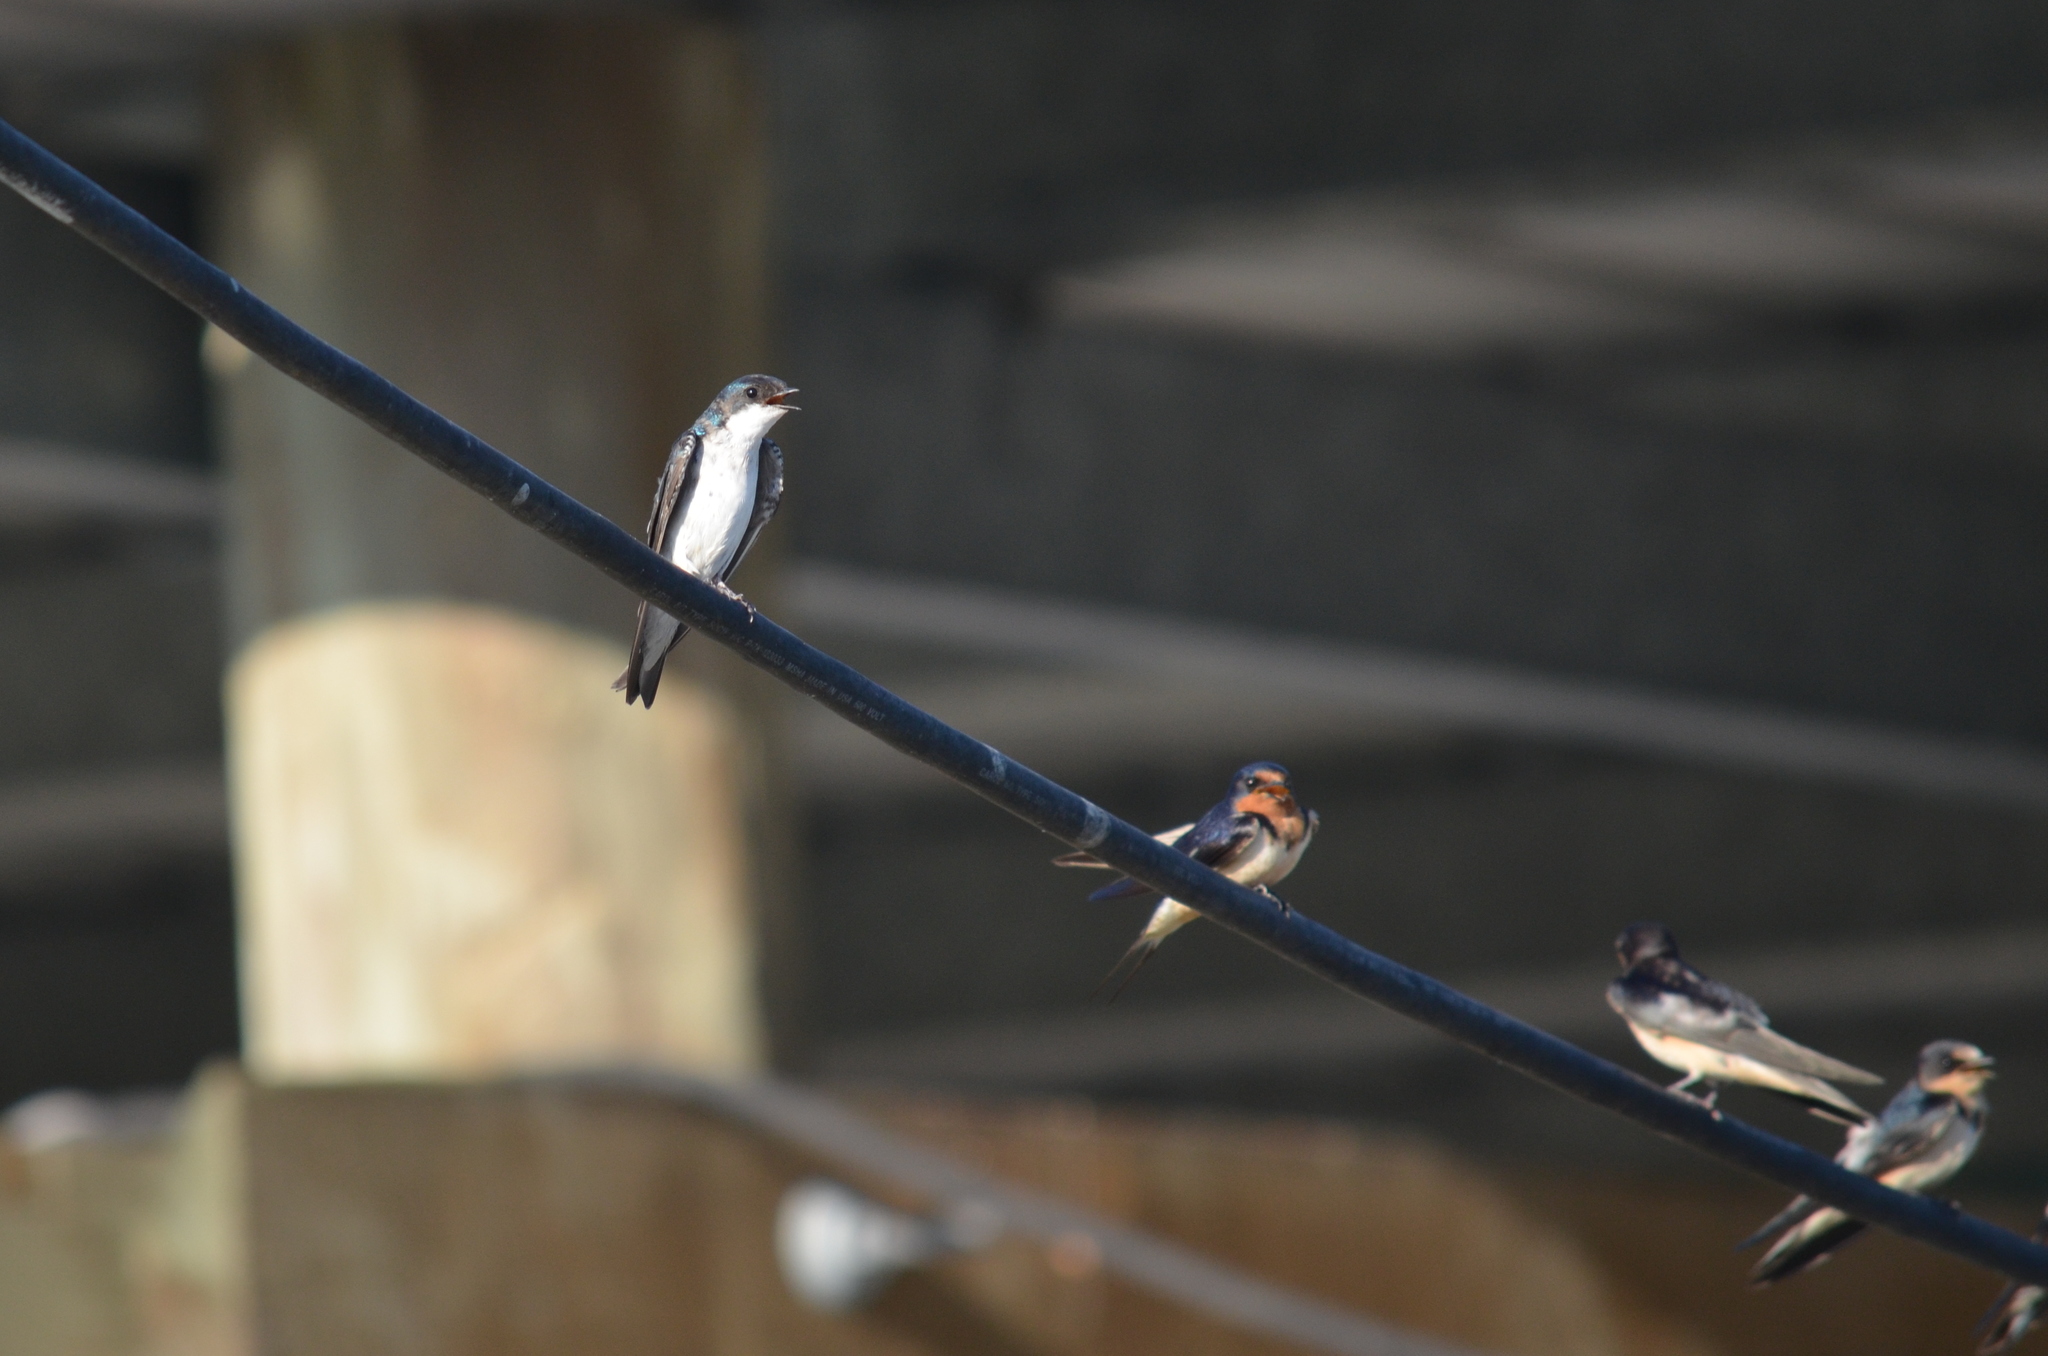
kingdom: Animalia
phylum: Chordata
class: Aves
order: Passeriformes
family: Hirundinidae
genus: Tachycineta
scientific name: Tachycineta bicolor
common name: Tree swallow
